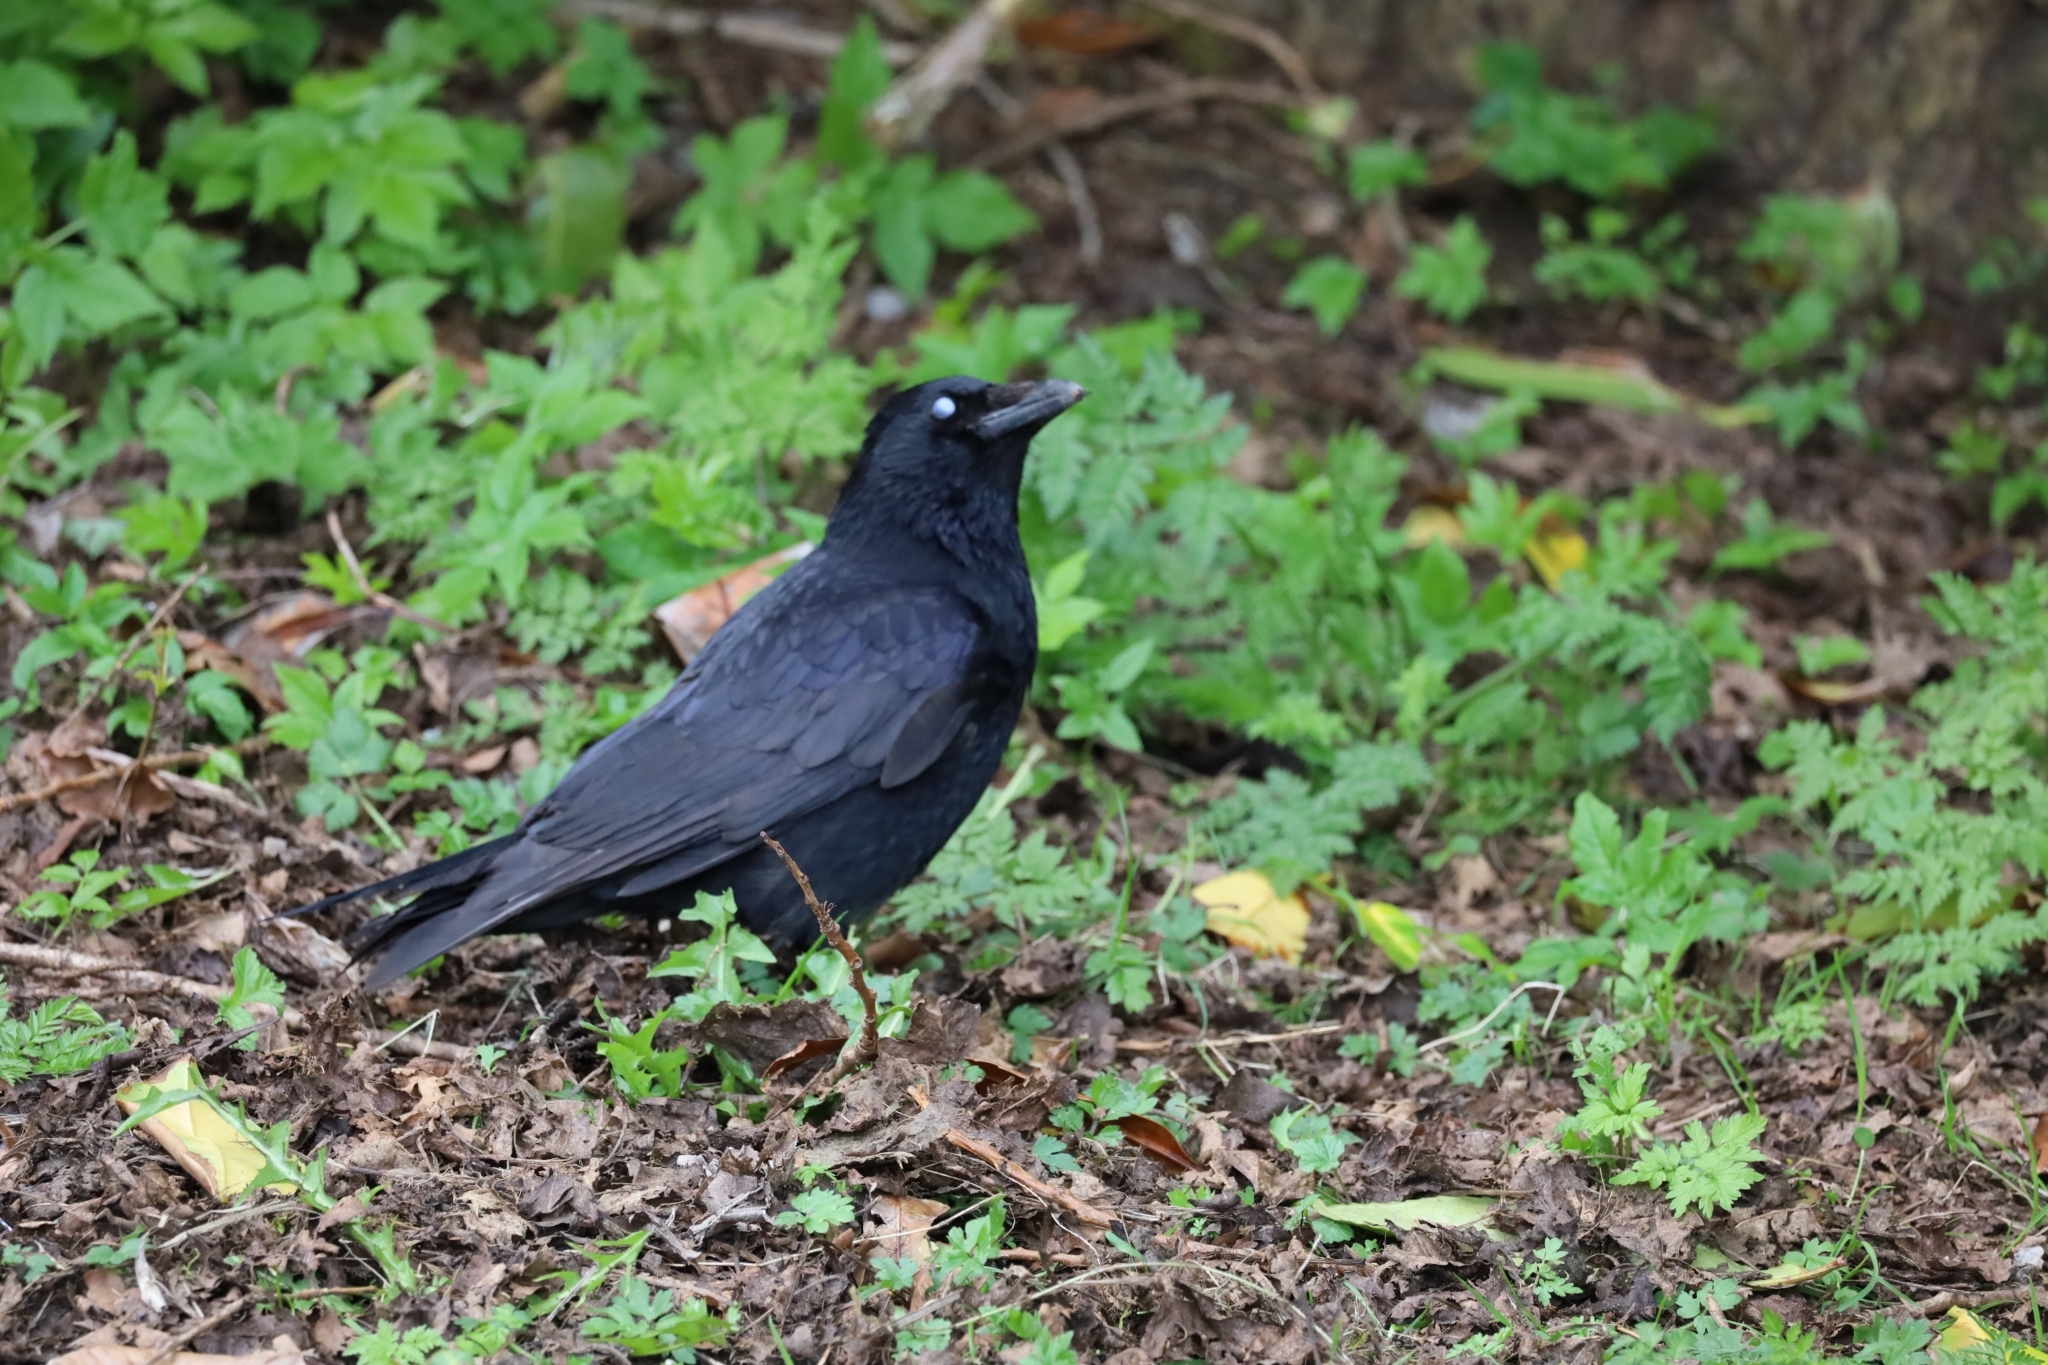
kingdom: Animalia
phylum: Chordata
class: Aves
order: Passeriformes
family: Corvidae
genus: Corvus
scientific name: Corvus corone
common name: Carrion crow
